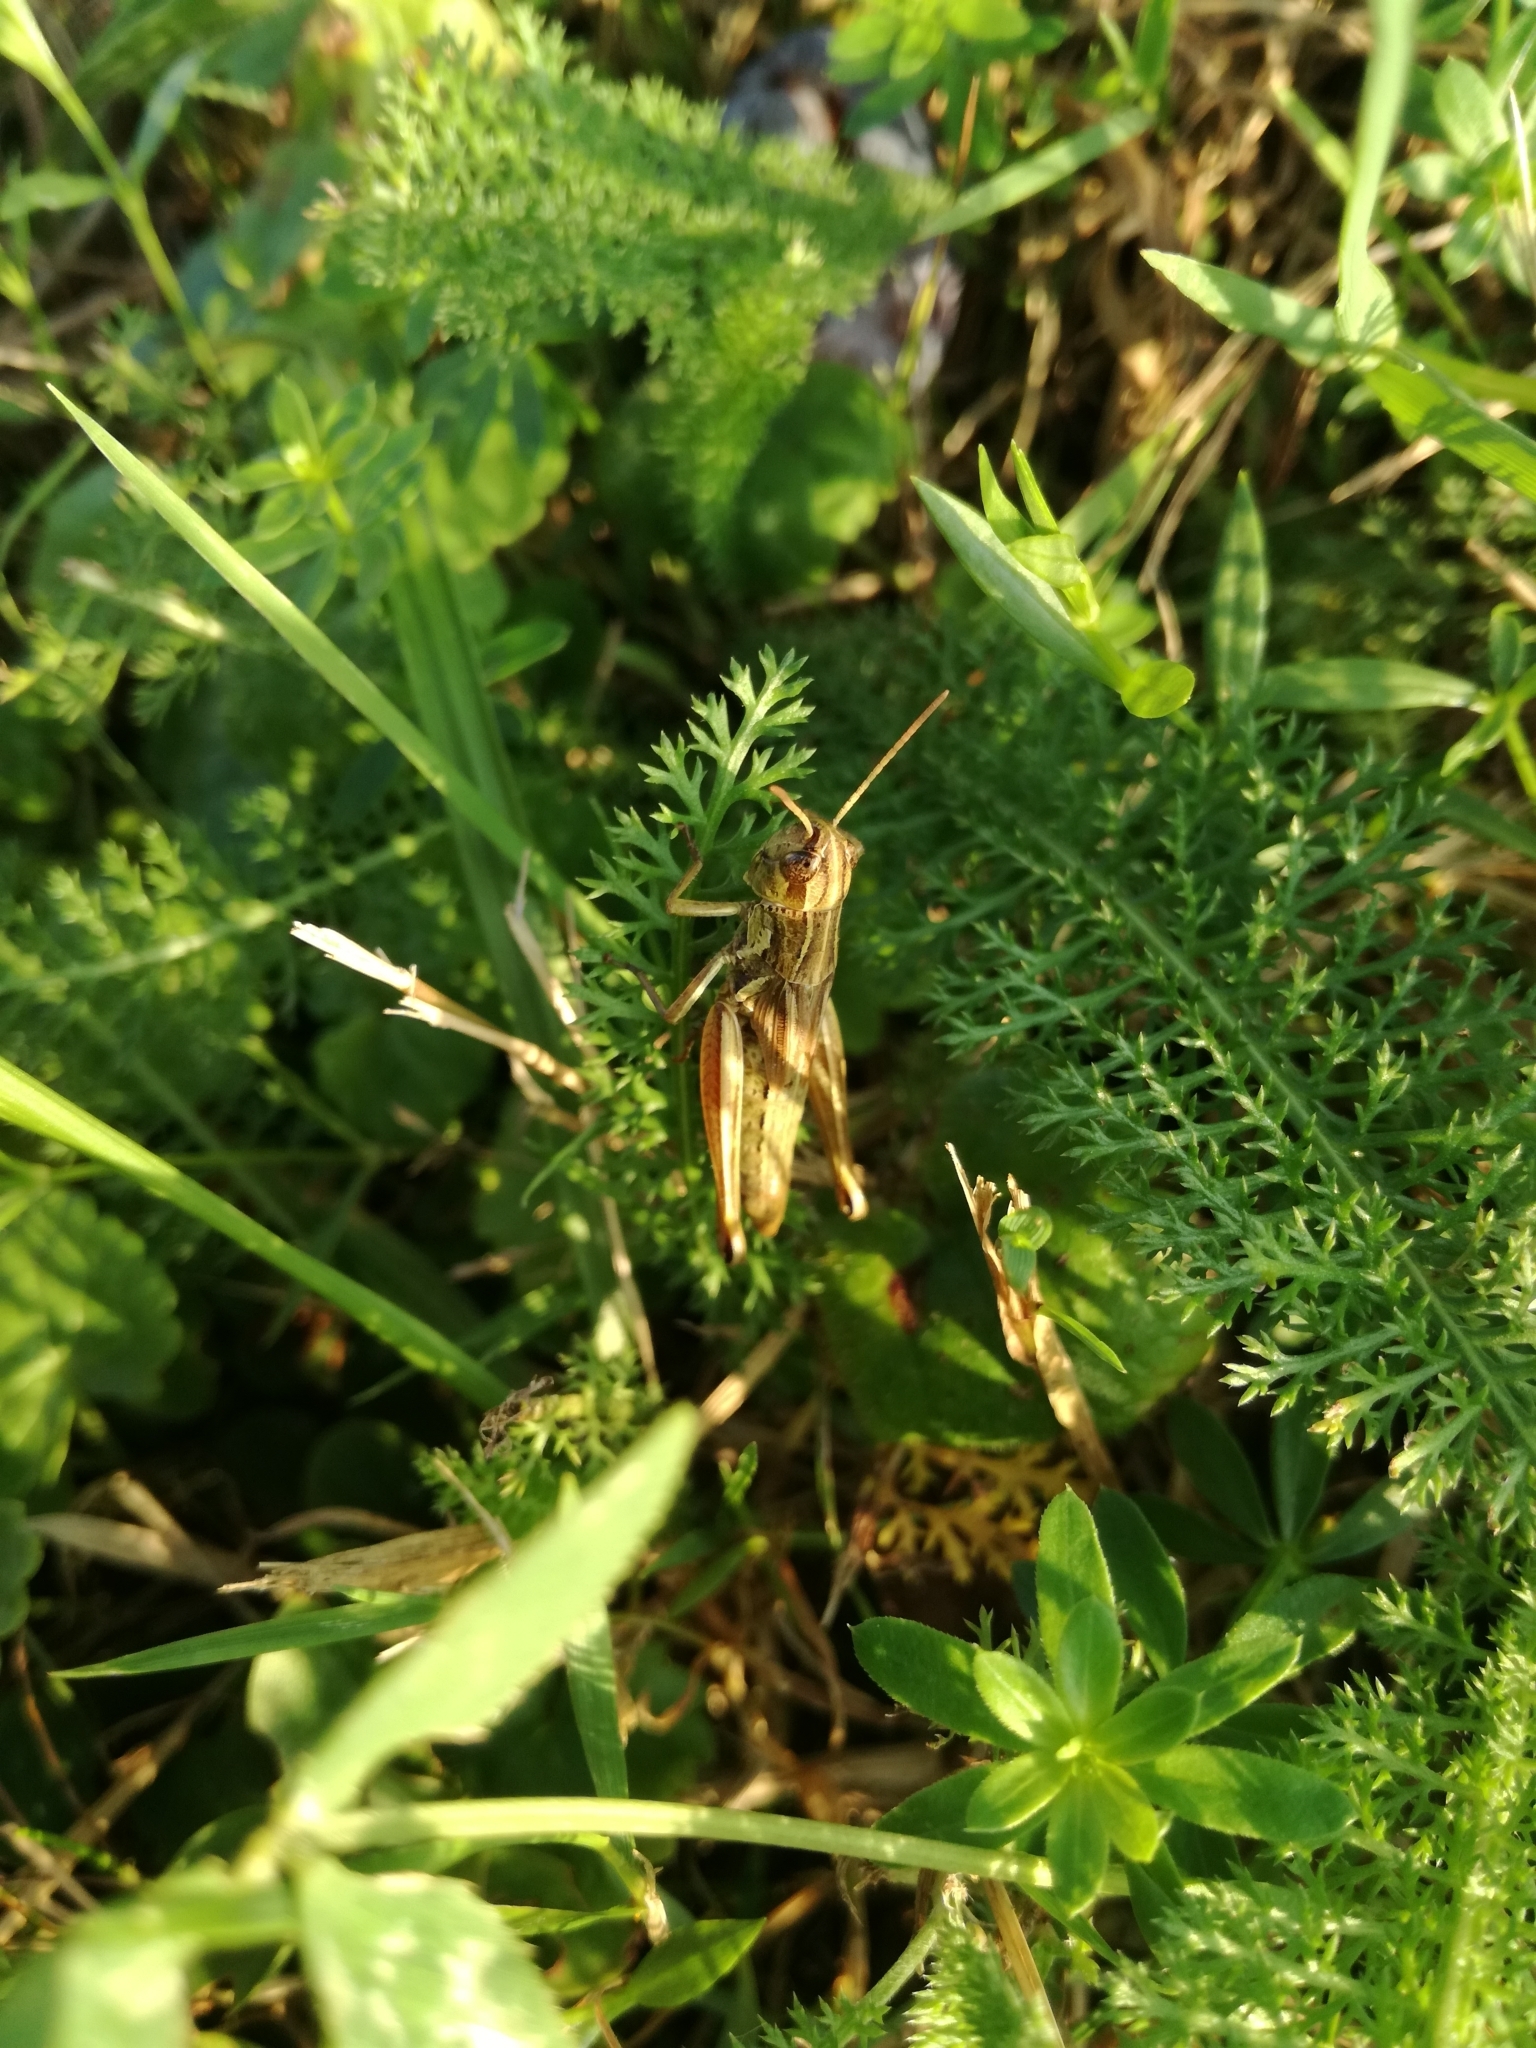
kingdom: Animalia
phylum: Arthropoda
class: Insecta
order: Orthoptera
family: Acrididae
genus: Pseudochorthippus
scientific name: Pseudochorthippus parallelus
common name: Meadow grasshopper
